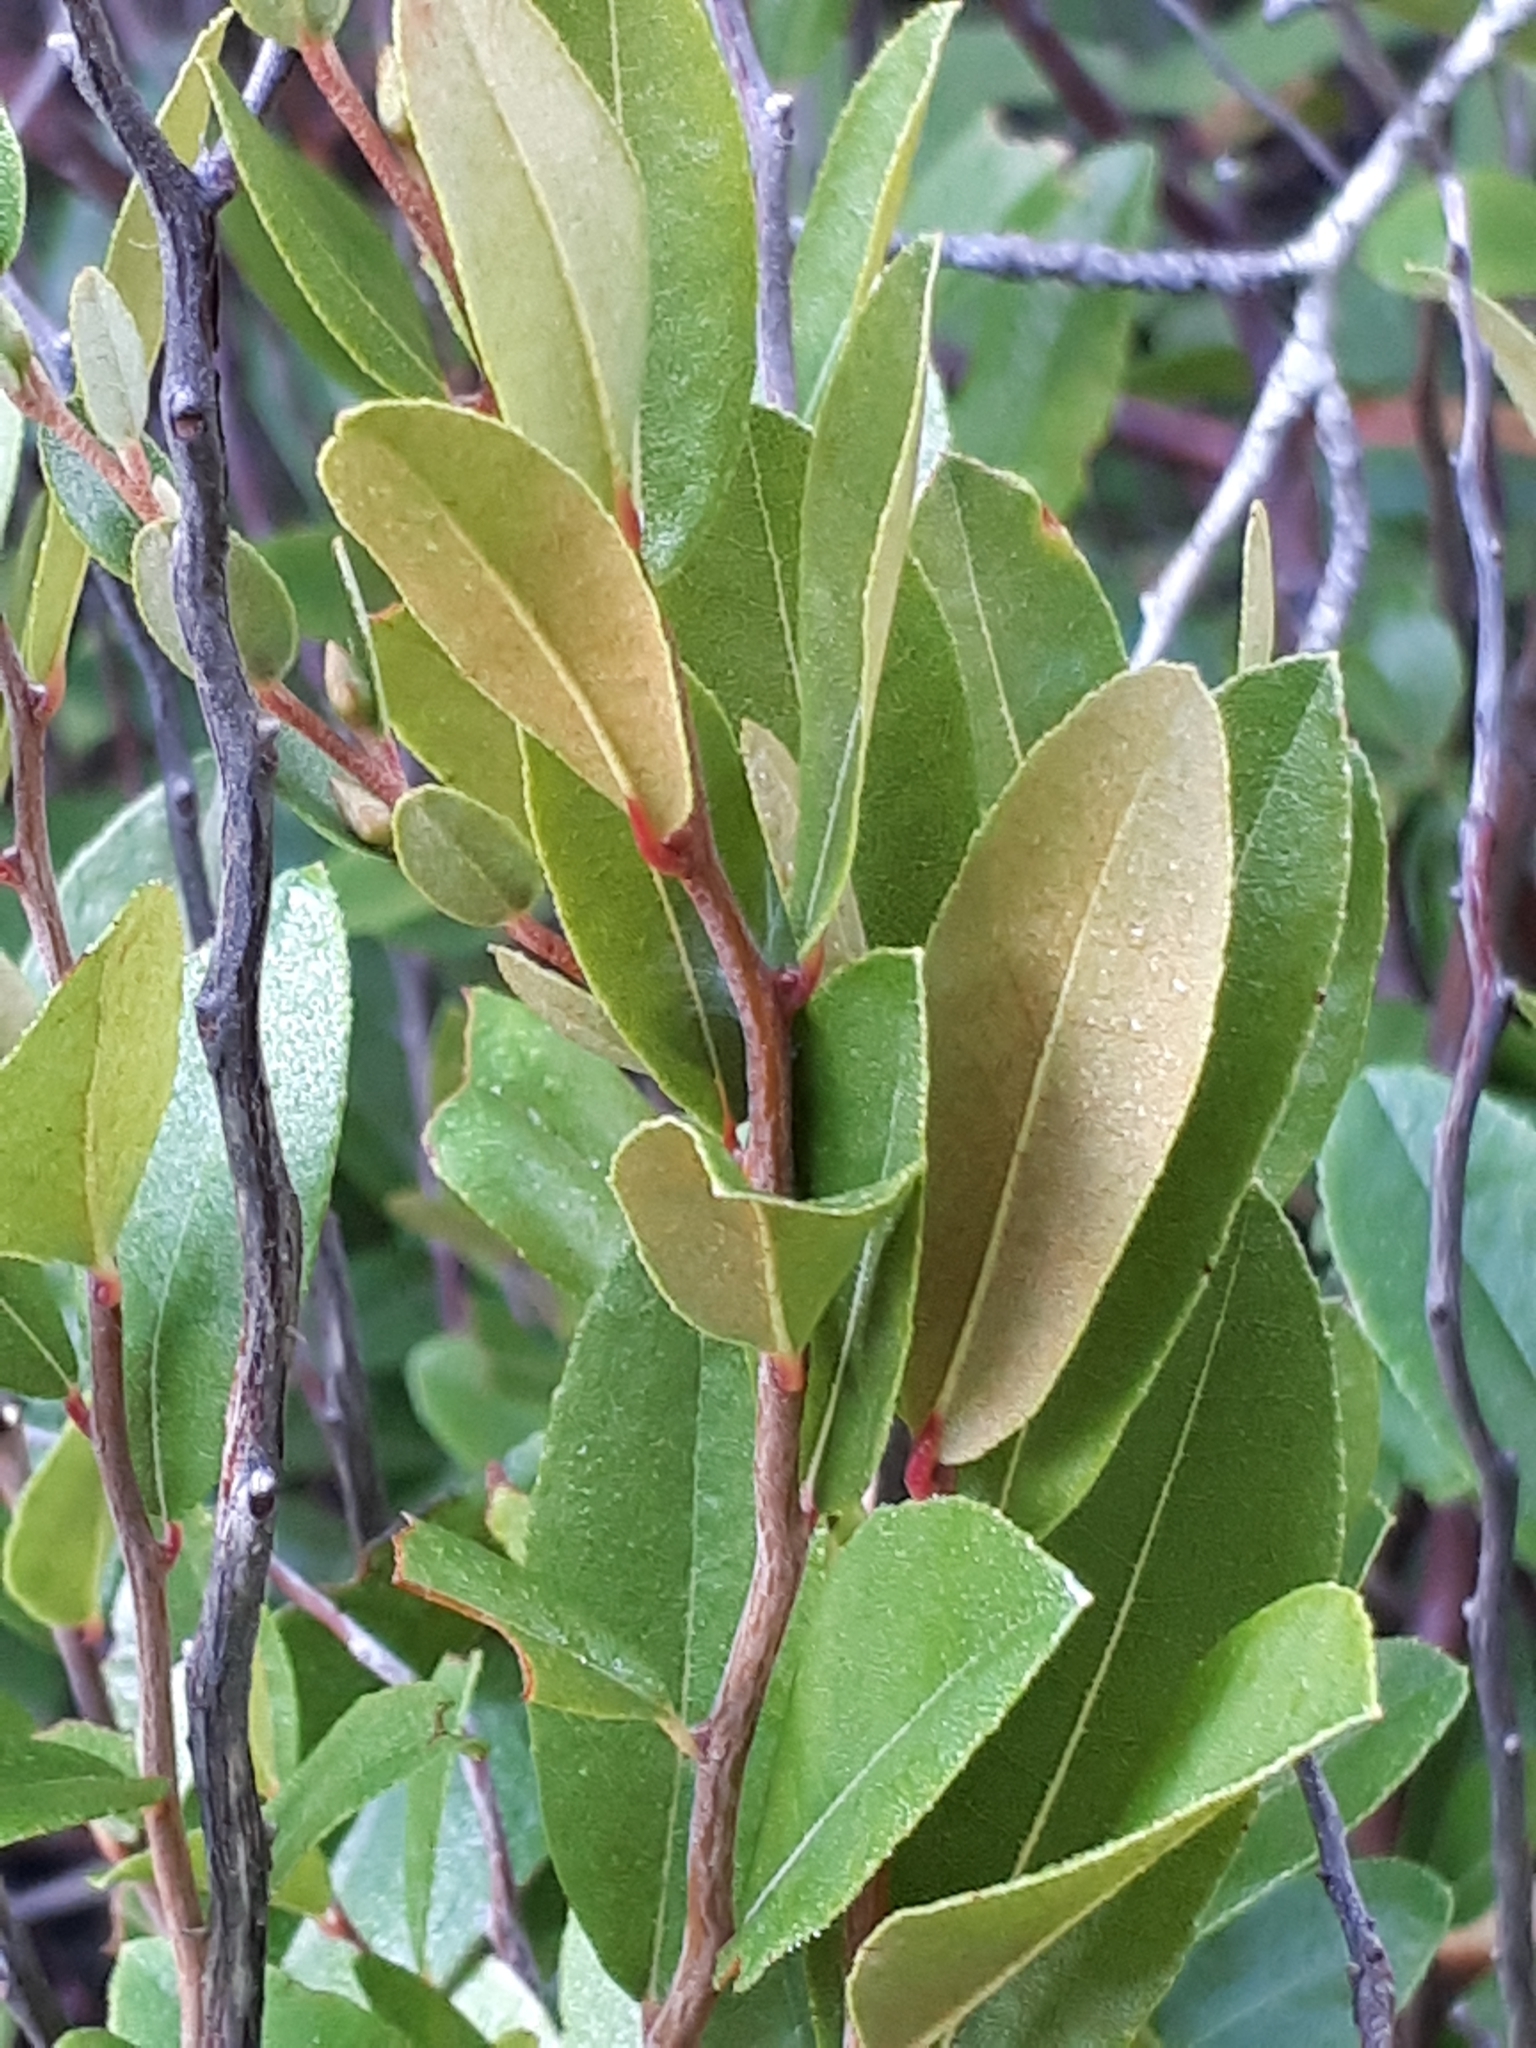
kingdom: Plantae
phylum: Tracheophyta
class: Magnoliopsida
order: Ericales
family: Ericaceae
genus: Chamaedaphne
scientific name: Chamaedaphne calyculata
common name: Leatherleaf
